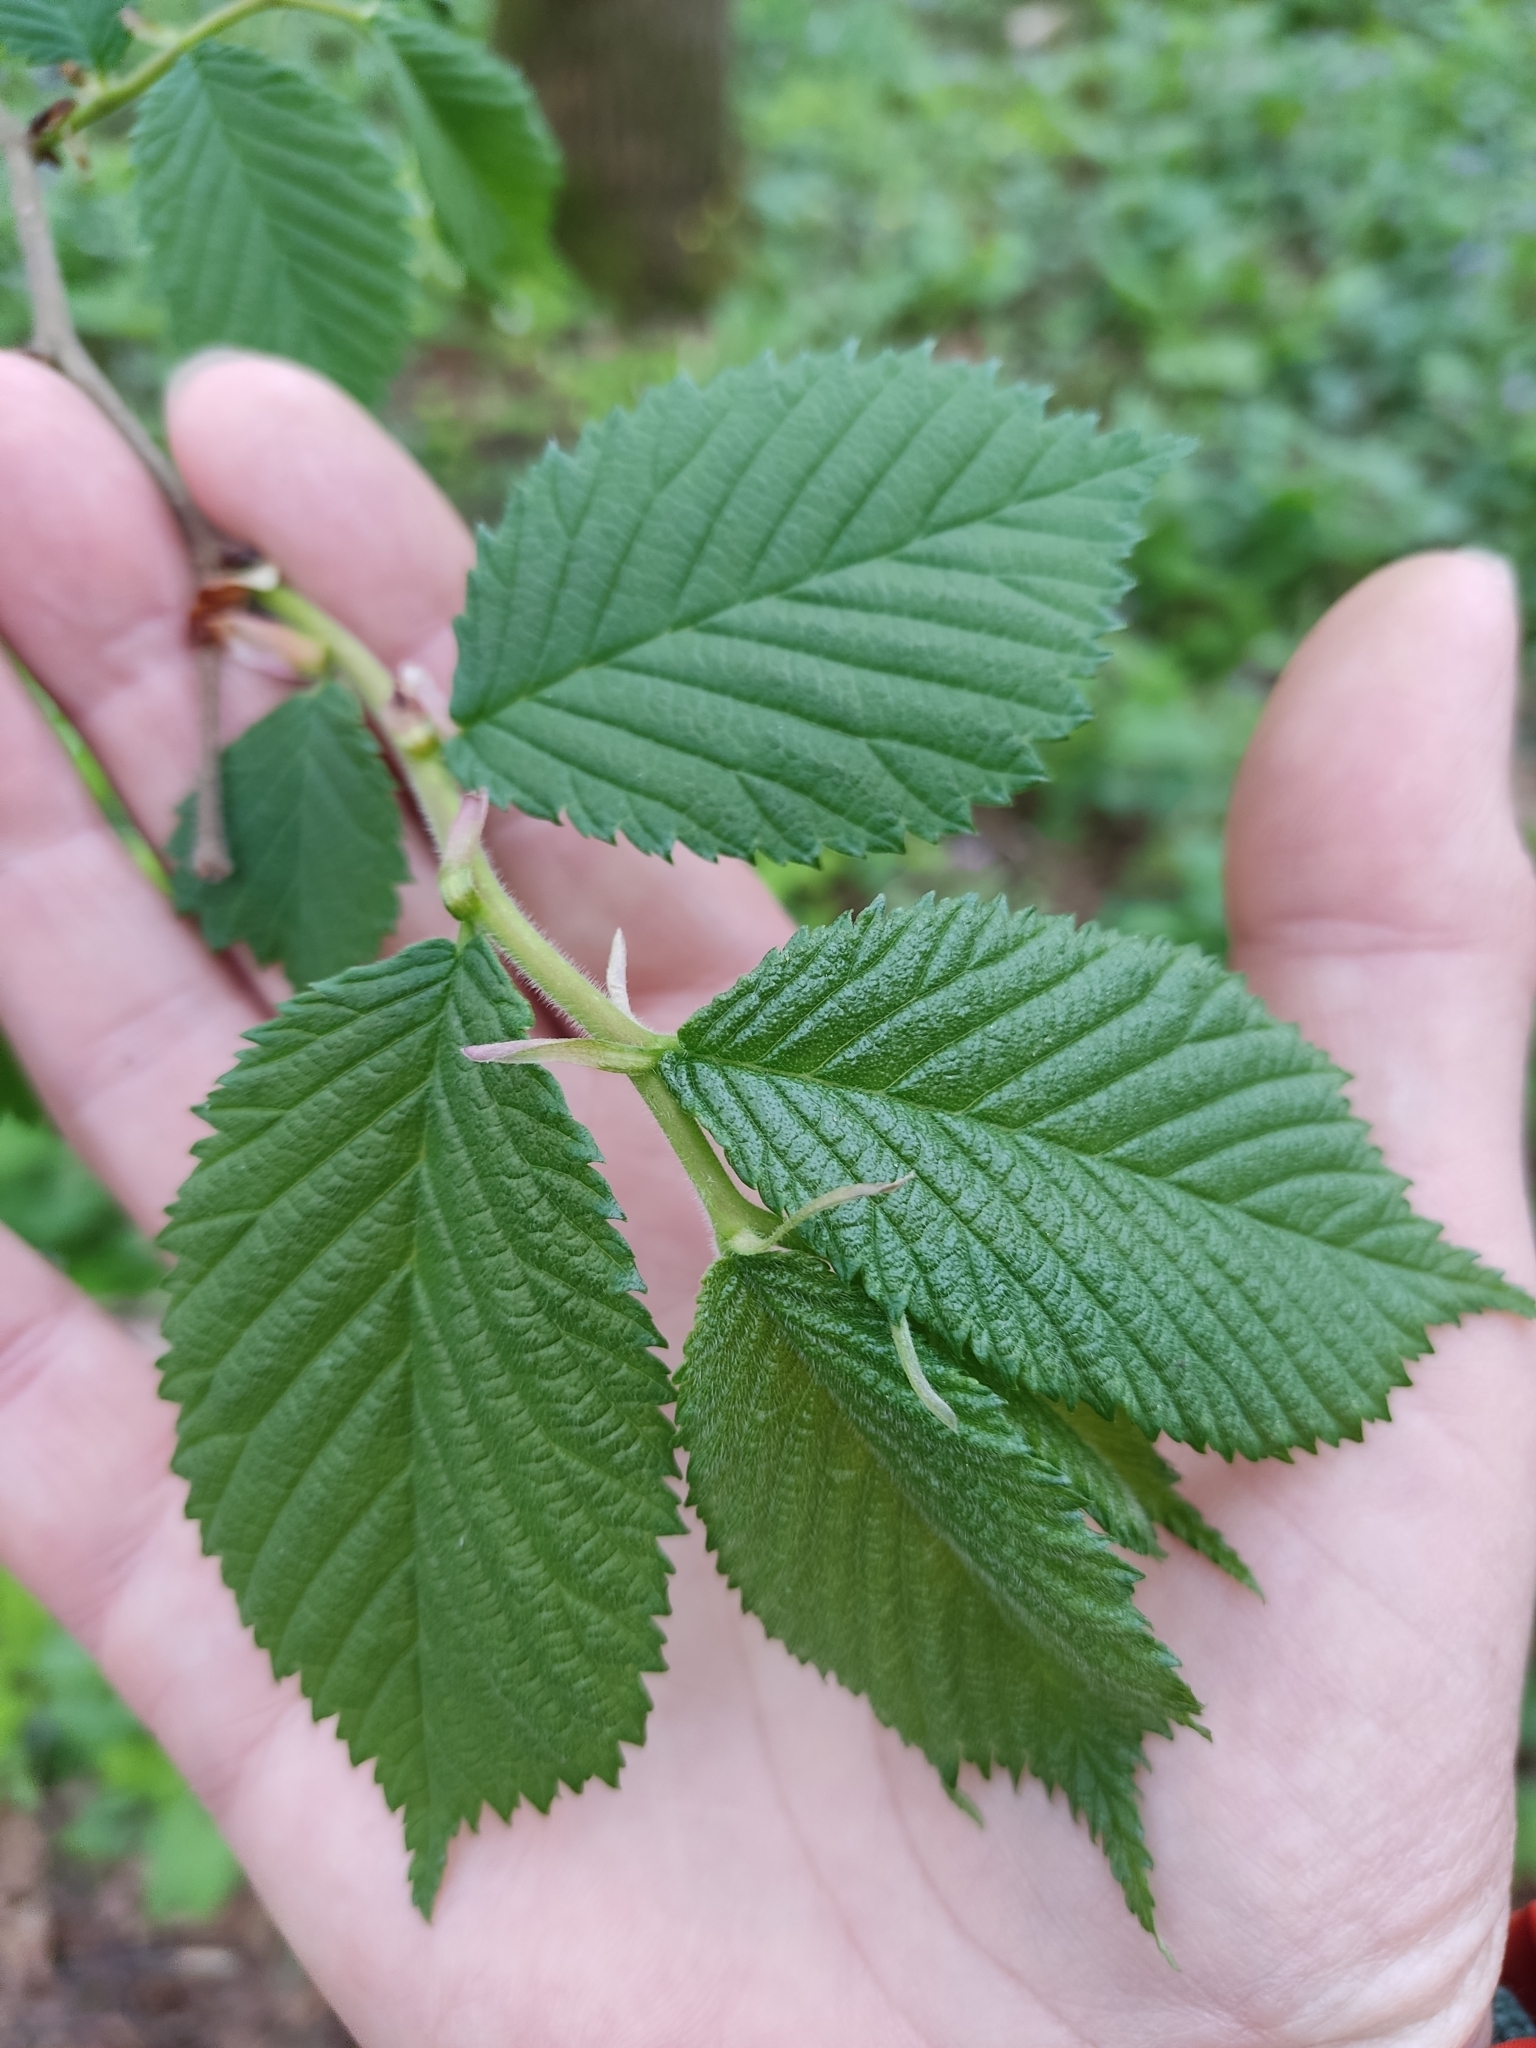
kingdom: Plantae
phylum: Tracheophyta
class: Magnoliopsida
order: Rosales
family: Ulmaceae
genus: Ulmus
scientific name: Ulmus glabra
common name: Wych elm
